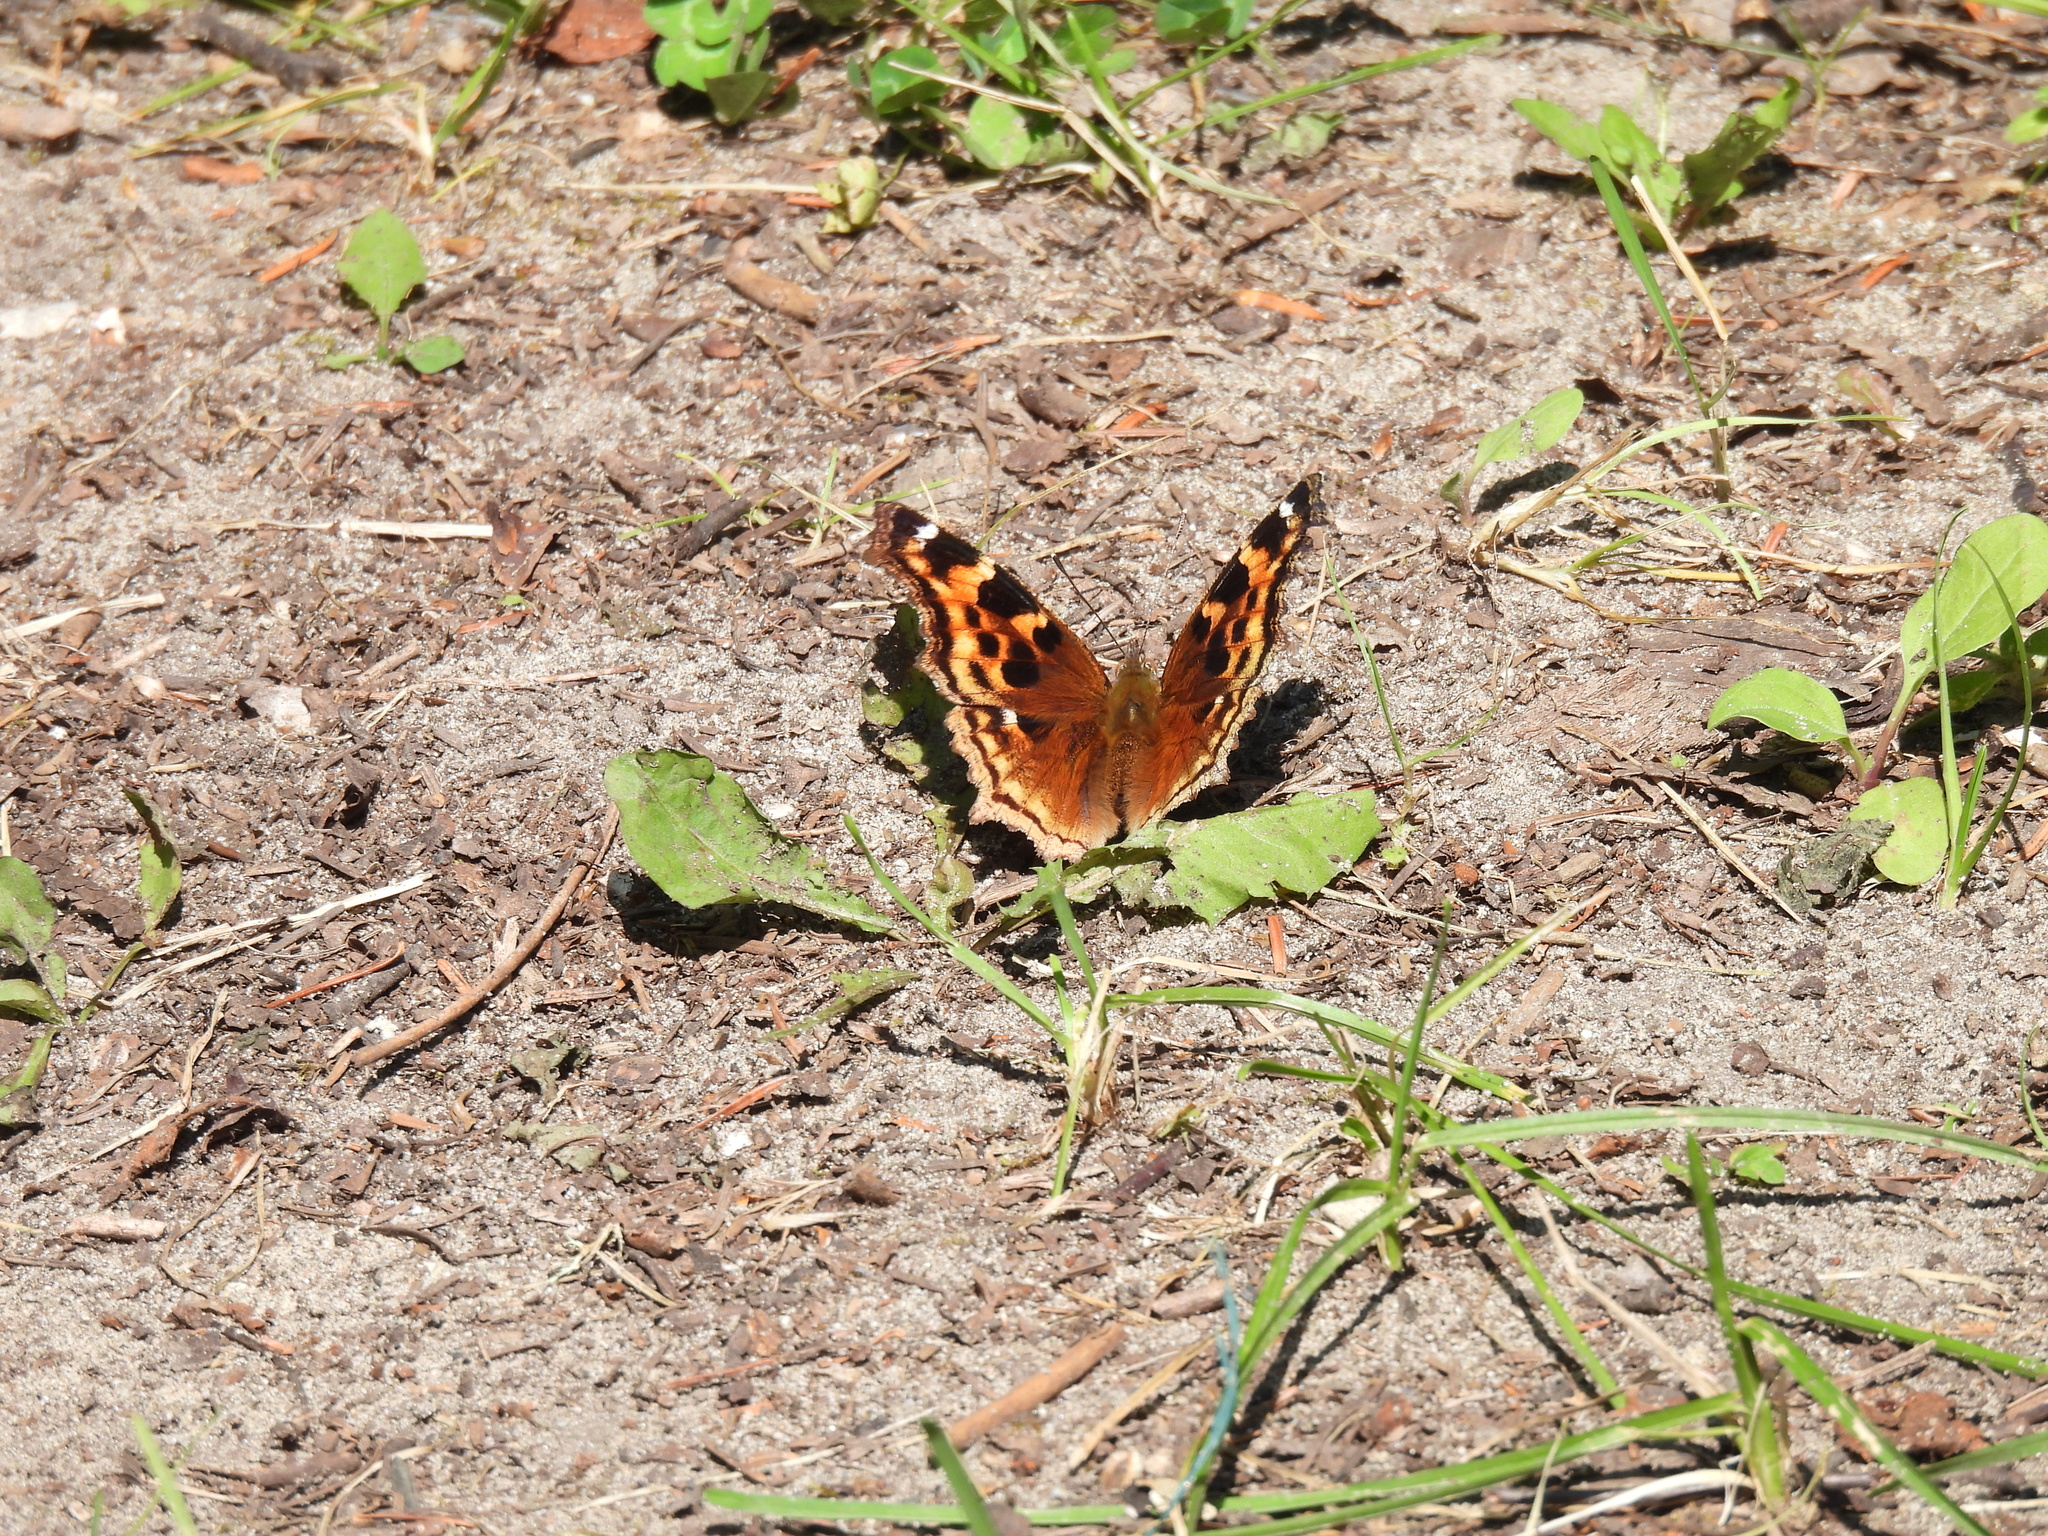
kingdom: Animalia
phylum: Arthropoda
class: Insecta
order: Lepidoptera
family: Nymphalidae
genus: Polygonia
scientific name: Polygonia vaualbum
